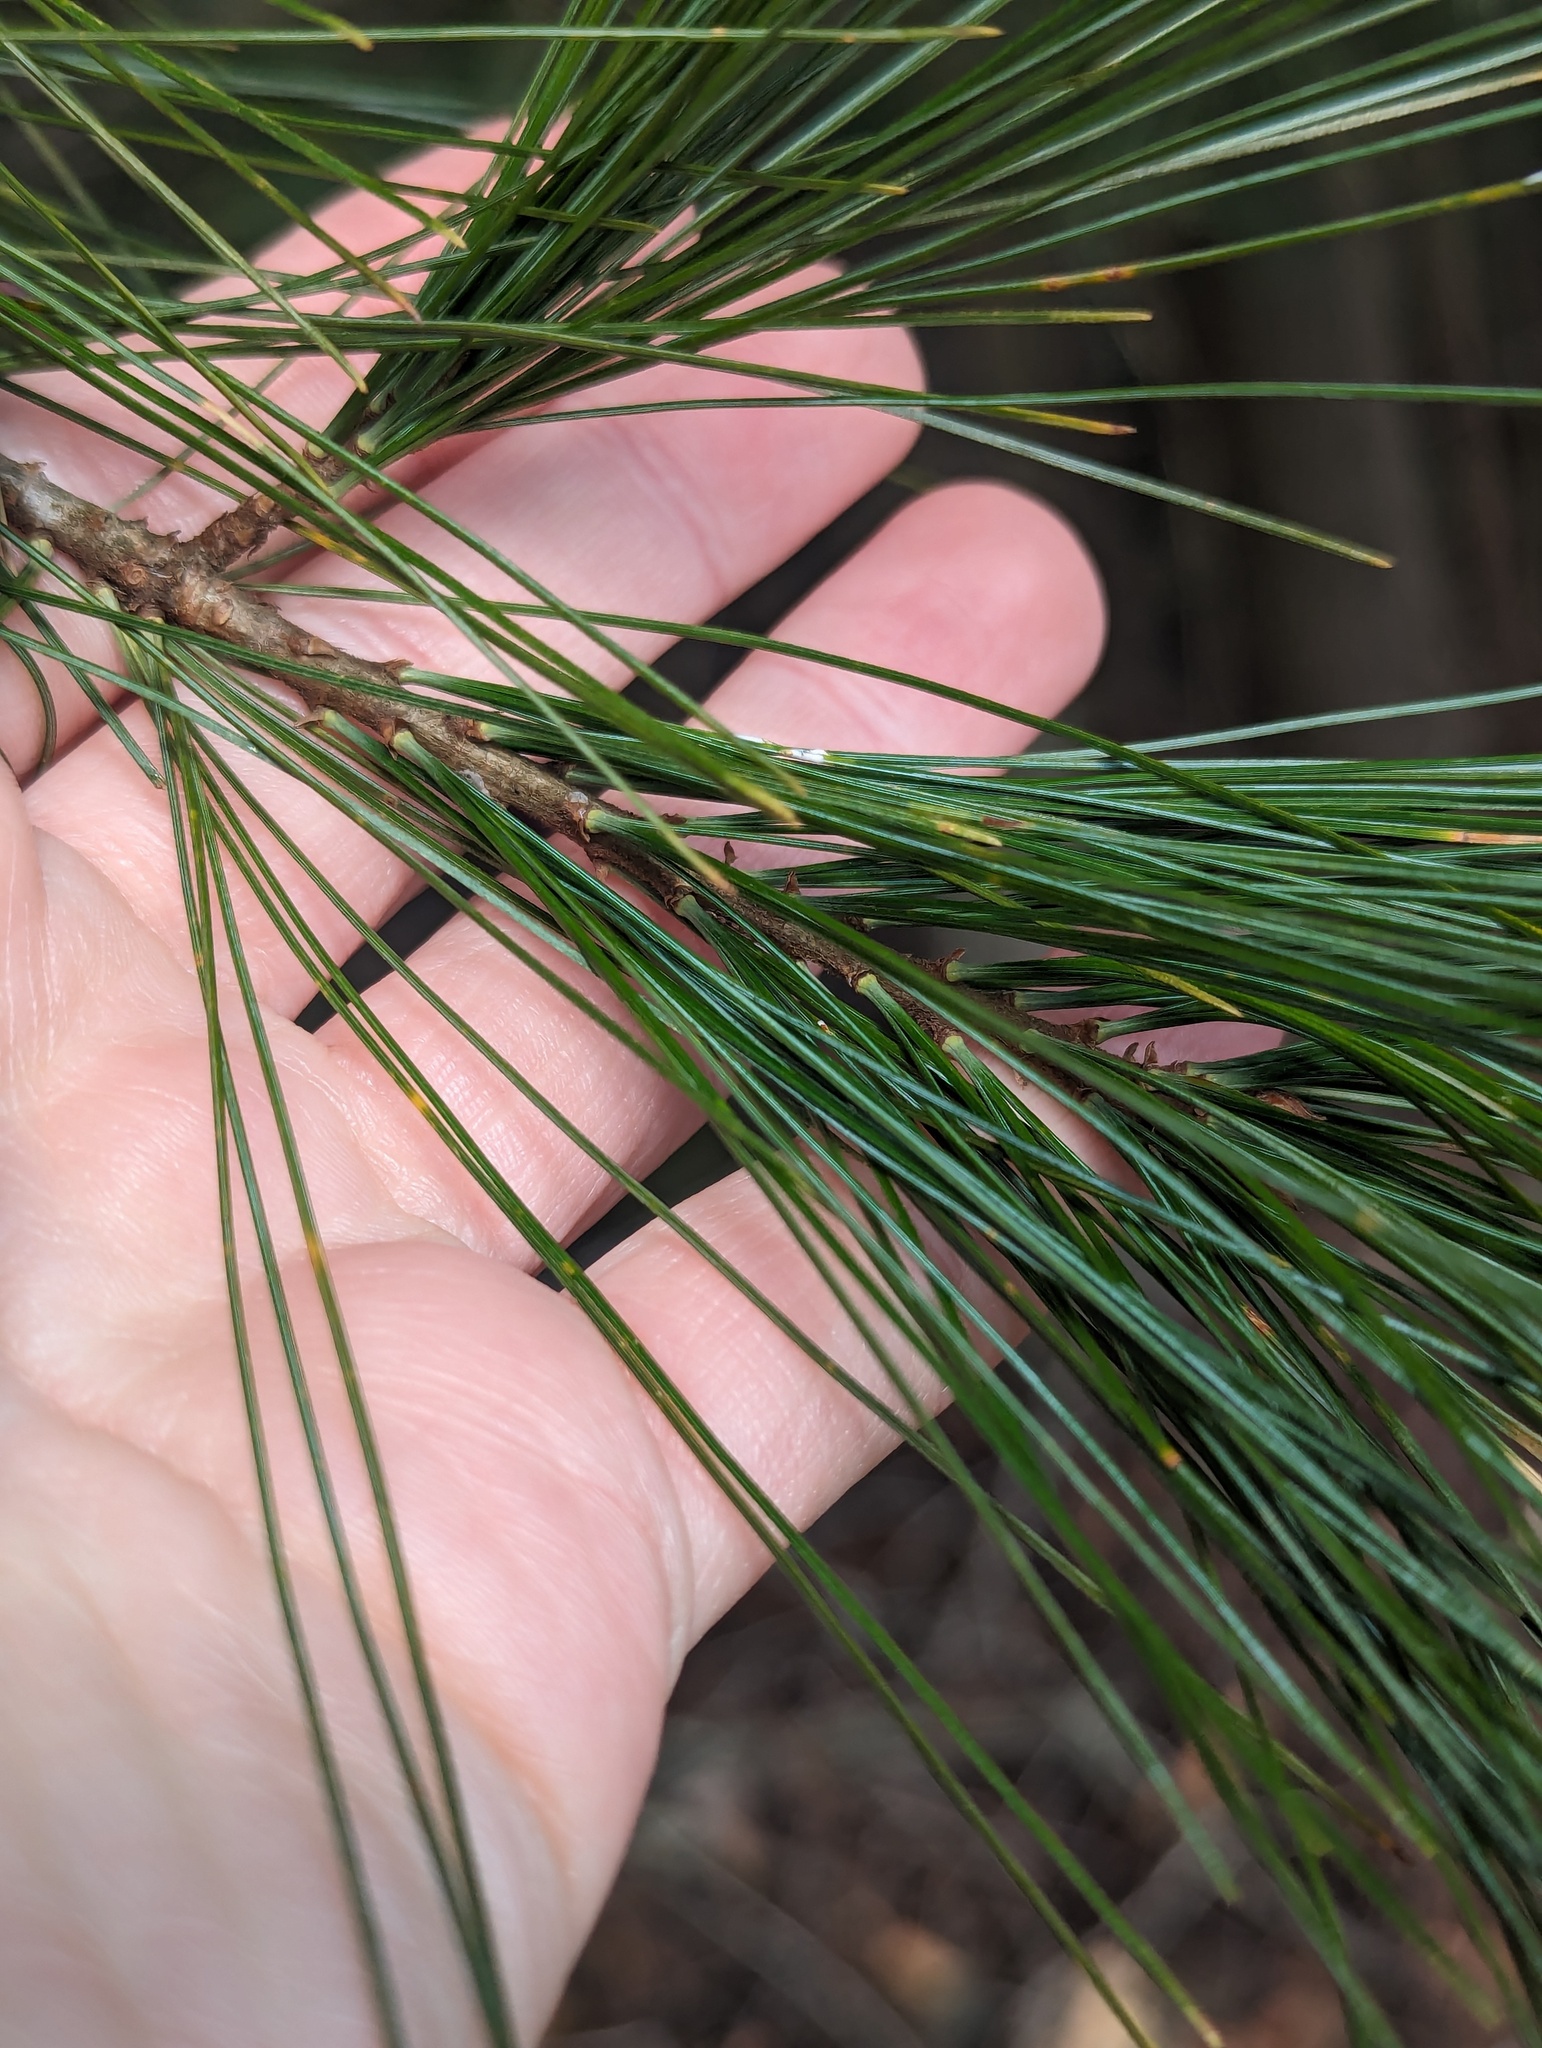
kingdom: Plantae
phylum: Tracheophyta
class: Pinopsida
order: Pinales
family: Pinaceae
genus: Pinus
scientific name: Pinus strobus
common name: Weymouth pine
